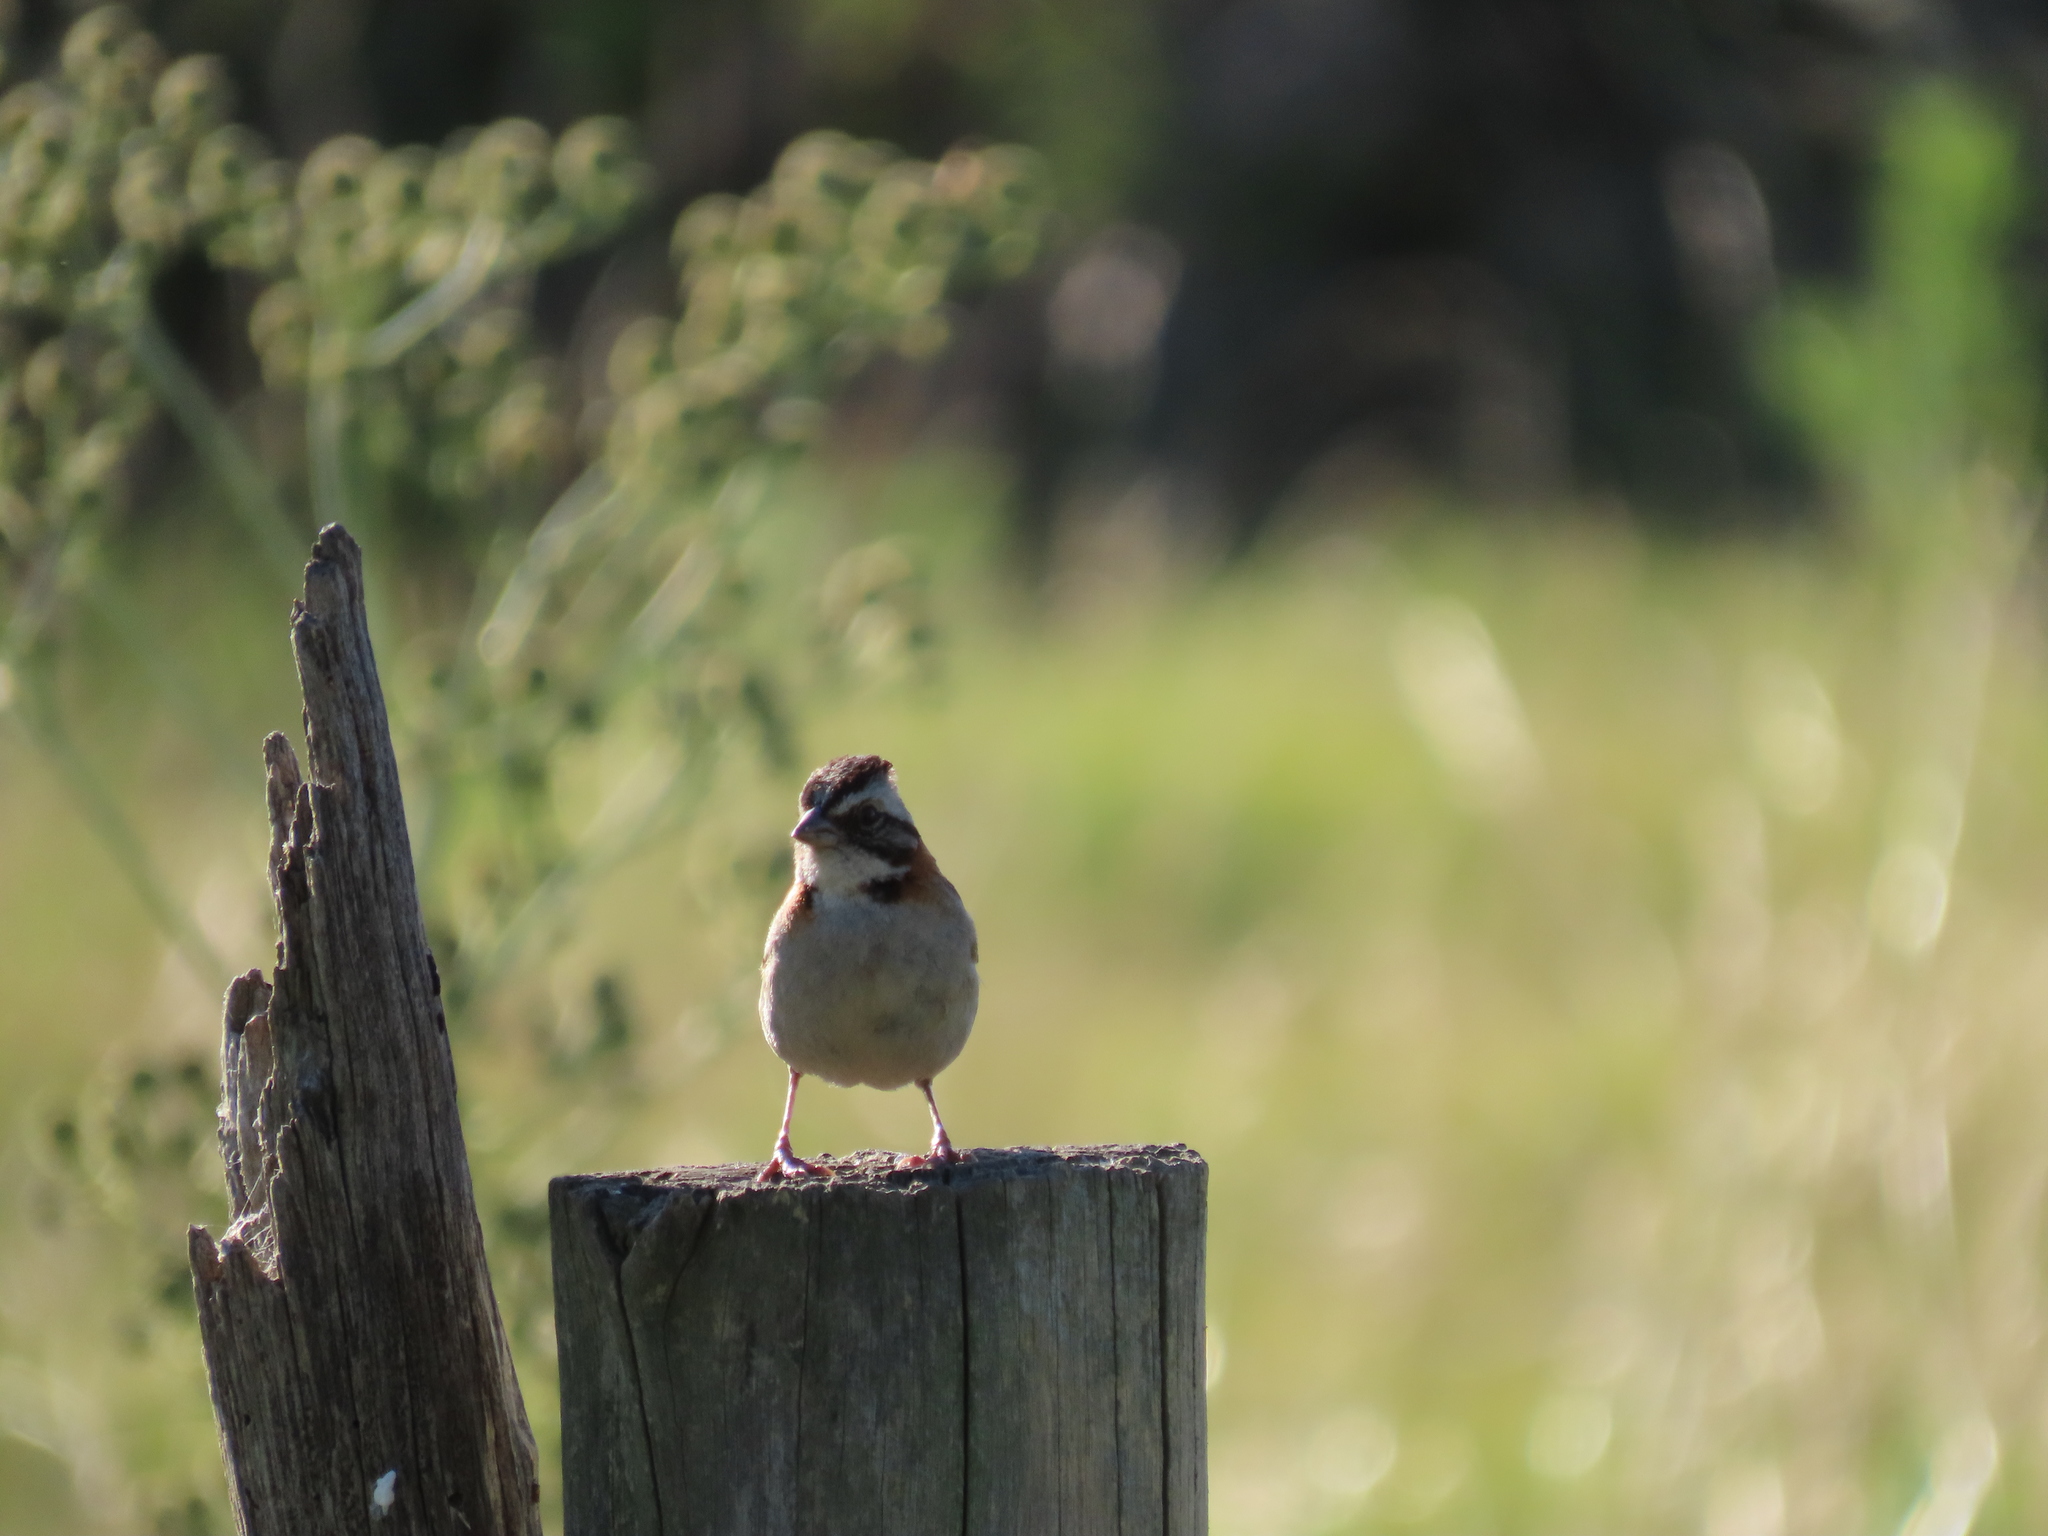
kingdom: Animalia
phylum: Chordata
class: Aves
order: Passeriformes
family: Passerellidae
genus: Zonotrichia
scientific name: Zonotrichia capensis
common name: Rufous-collared sparrow
